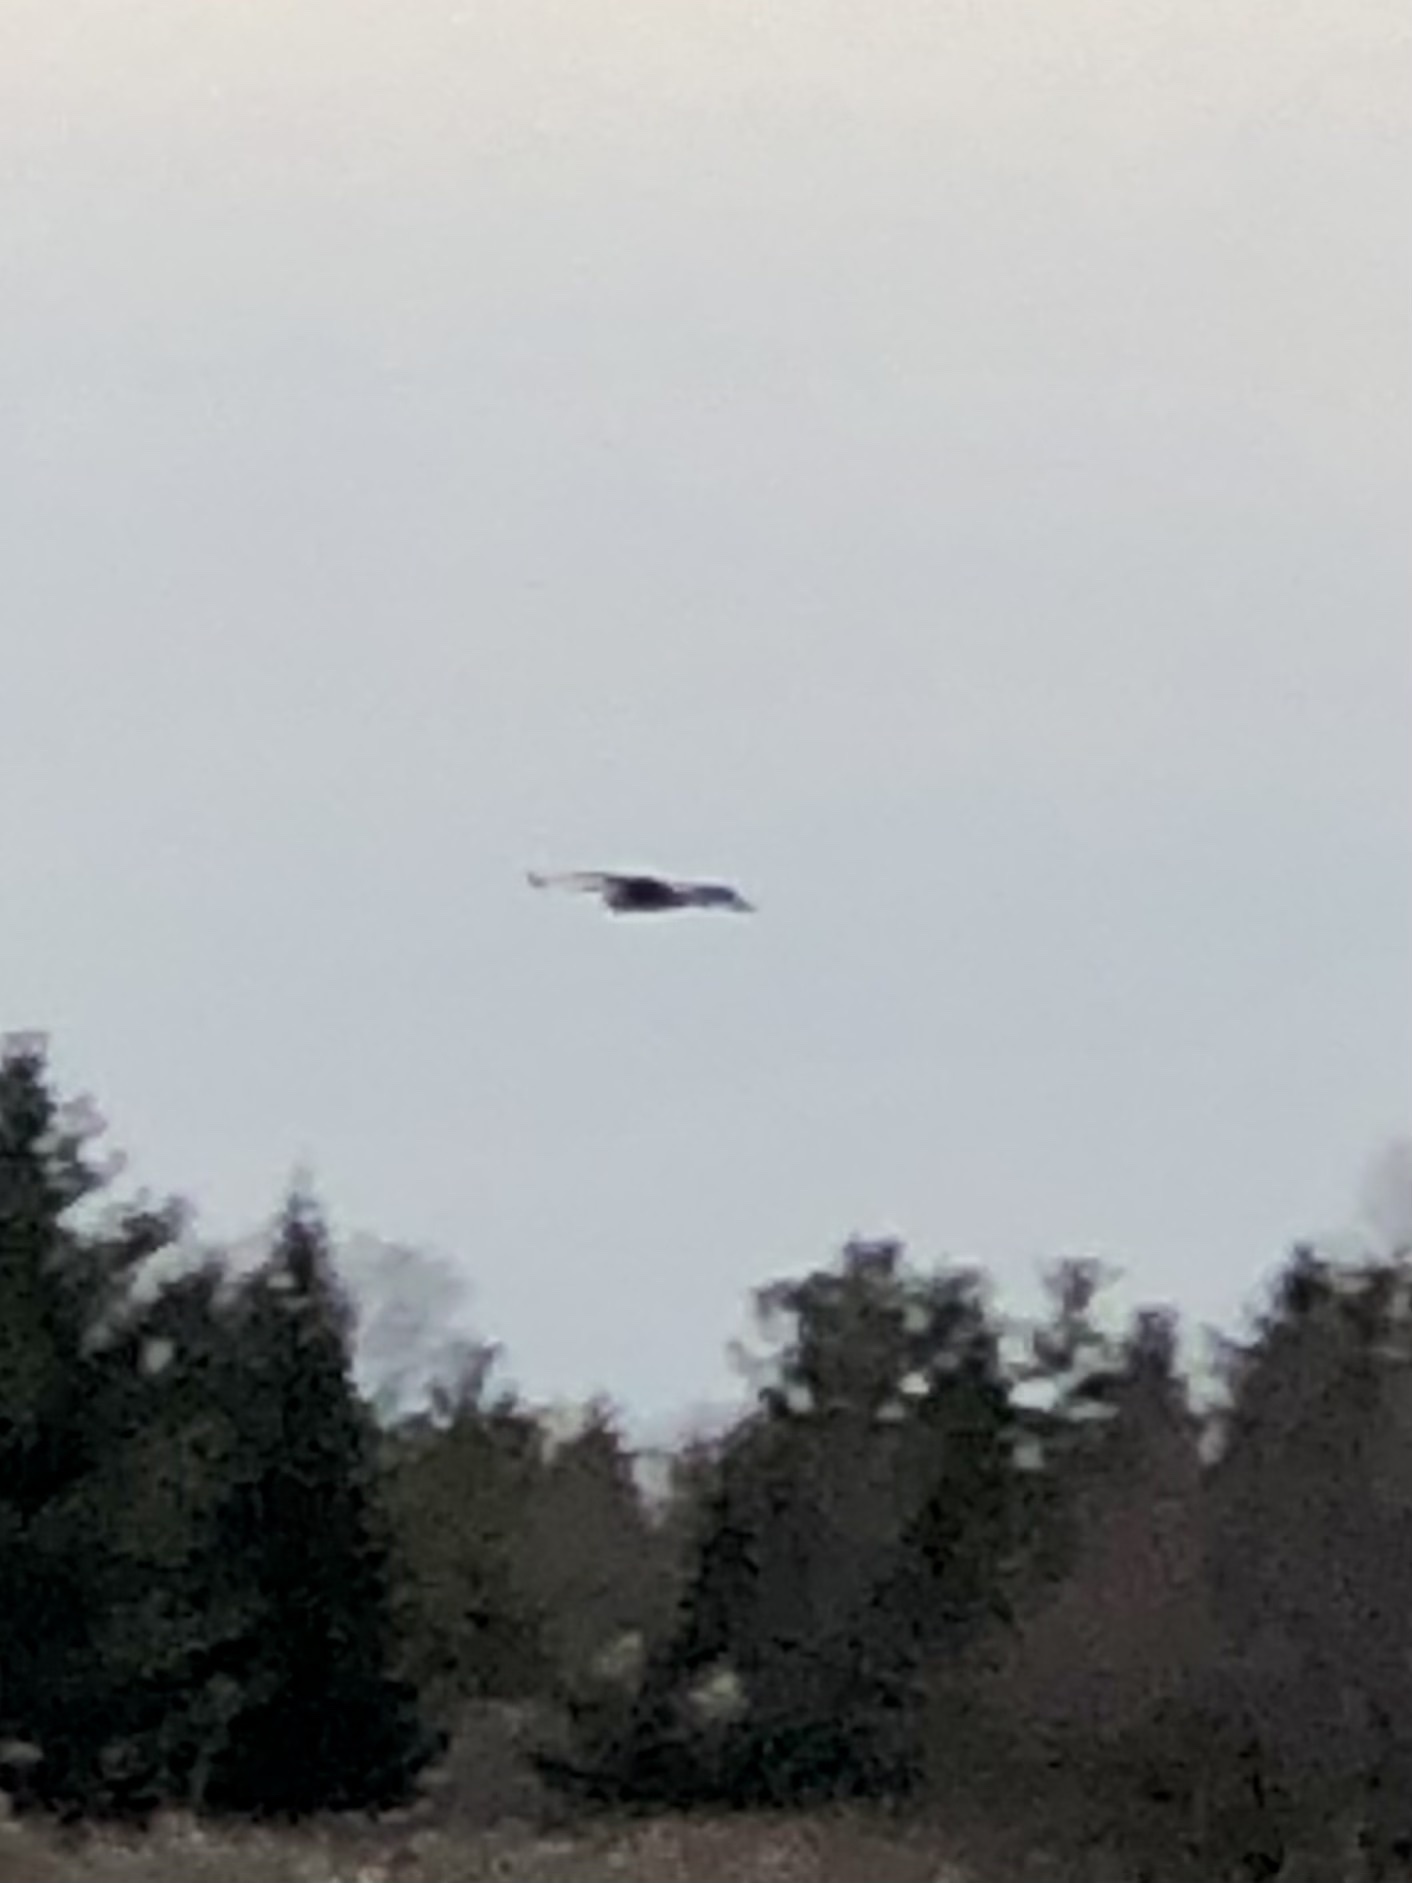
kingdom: Animalia
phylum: Chordata
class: Aves
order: Pelecaniformes
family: Ardeidae
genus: Ardea
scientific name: Ardea herodias
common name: Great blue heron
